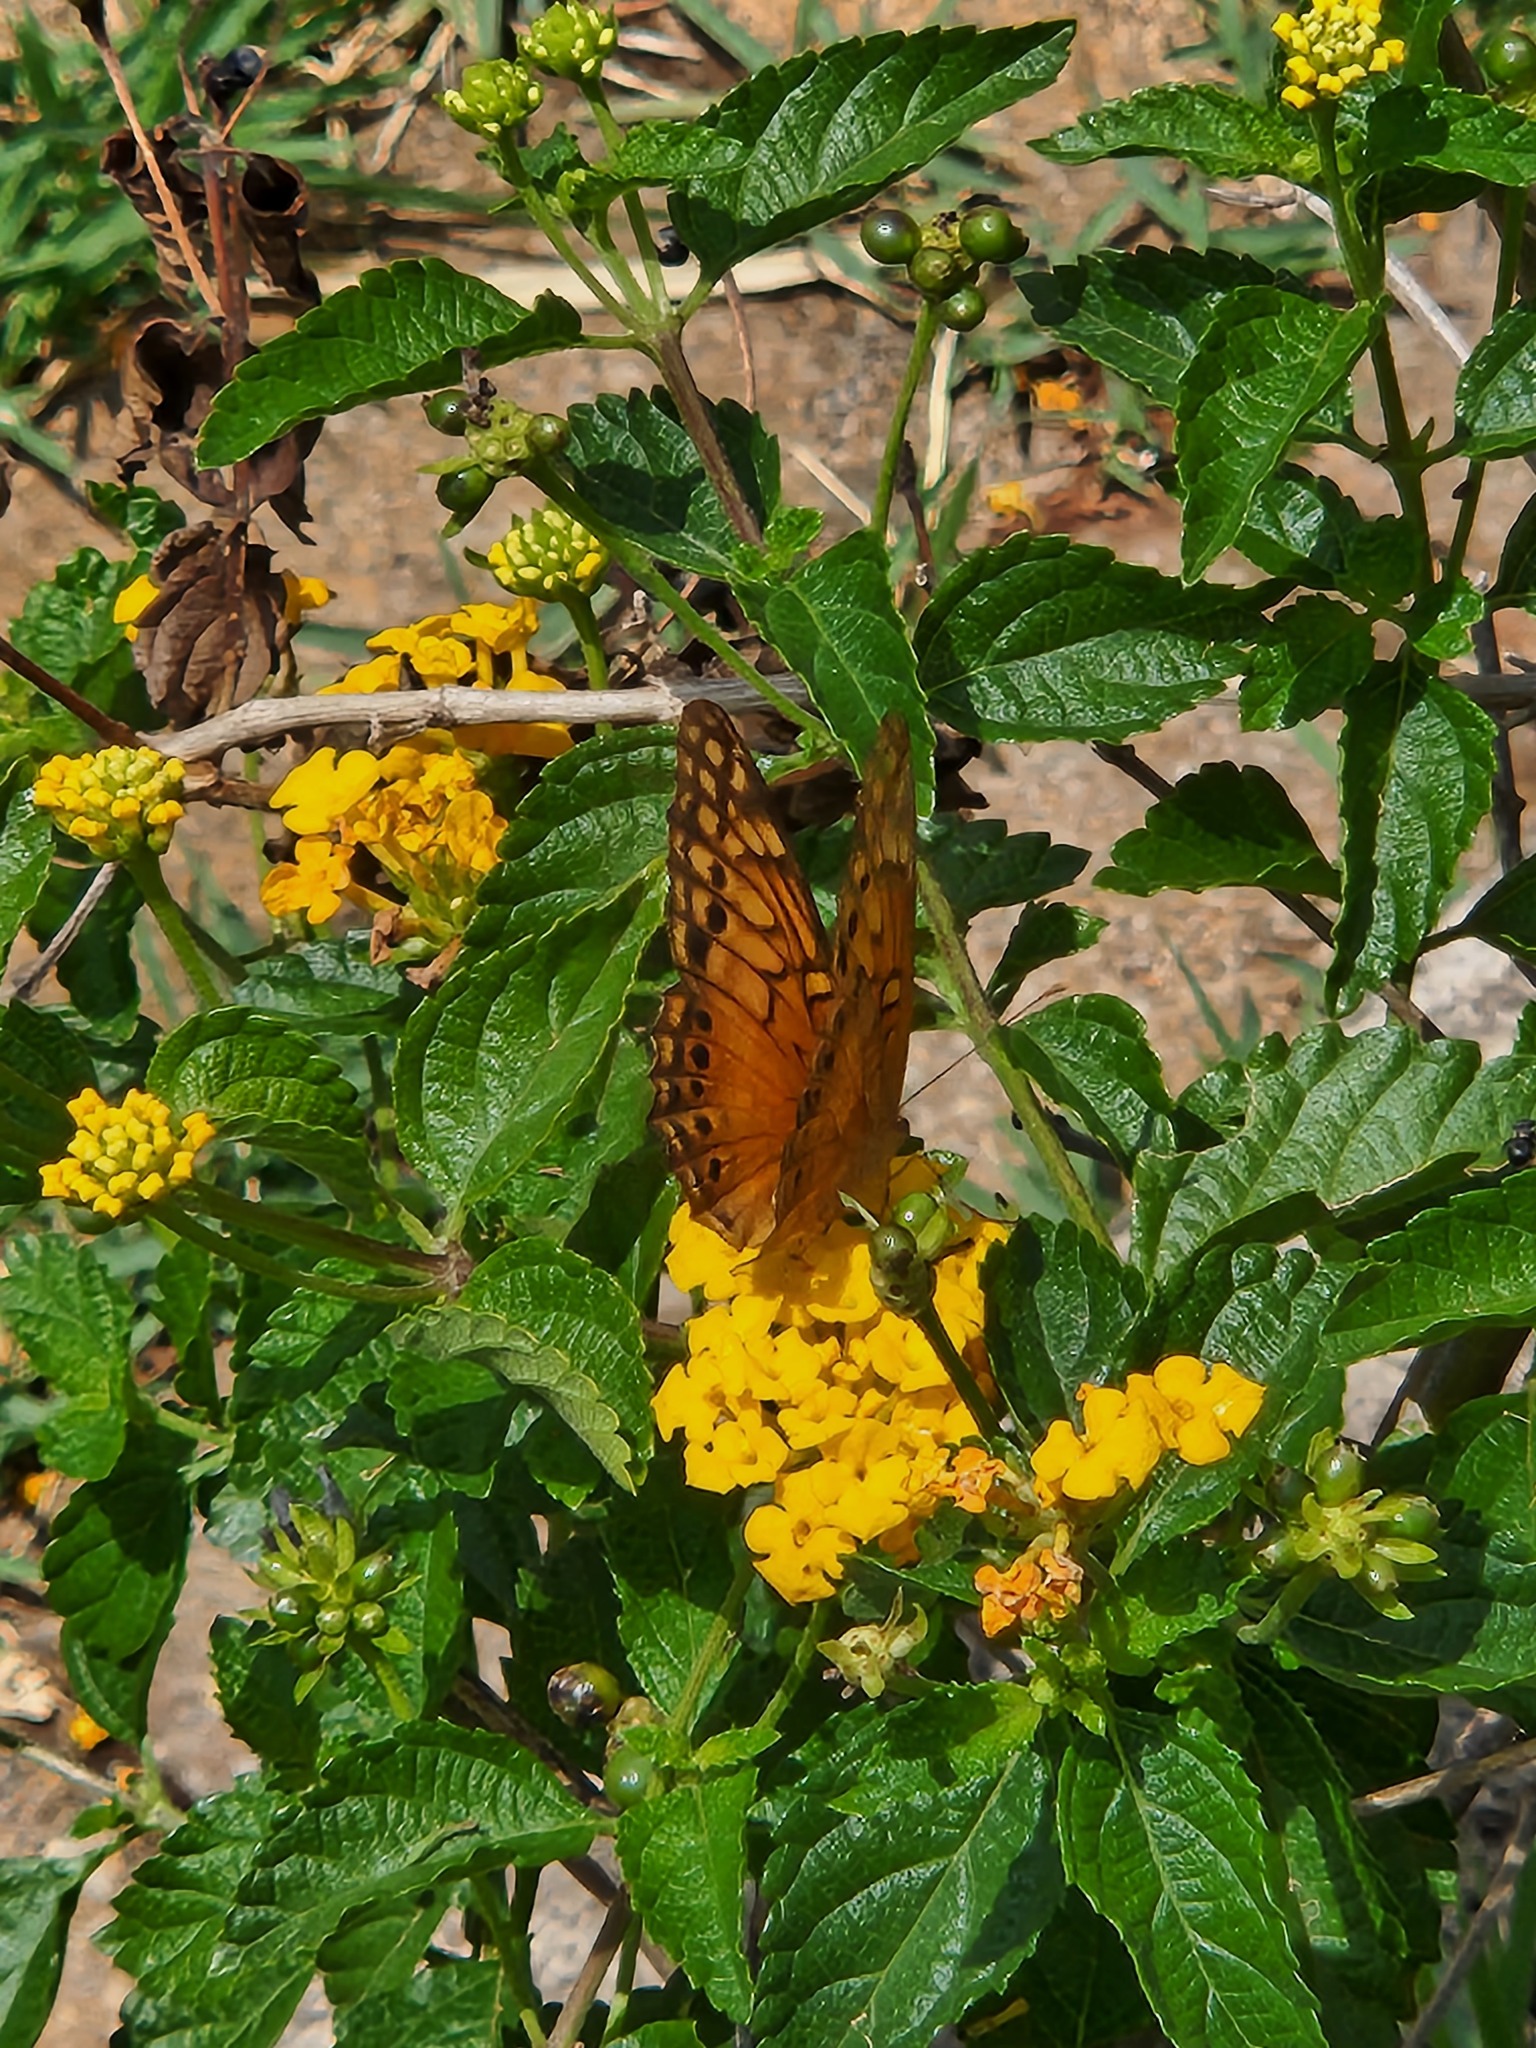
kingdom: Animalia
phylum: Arthropoda
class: Insecta
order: Lepidoptera
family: Nymphalidae
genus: Euptoieta
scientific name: Euptoieta hegesia
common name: Mexican fritillary
